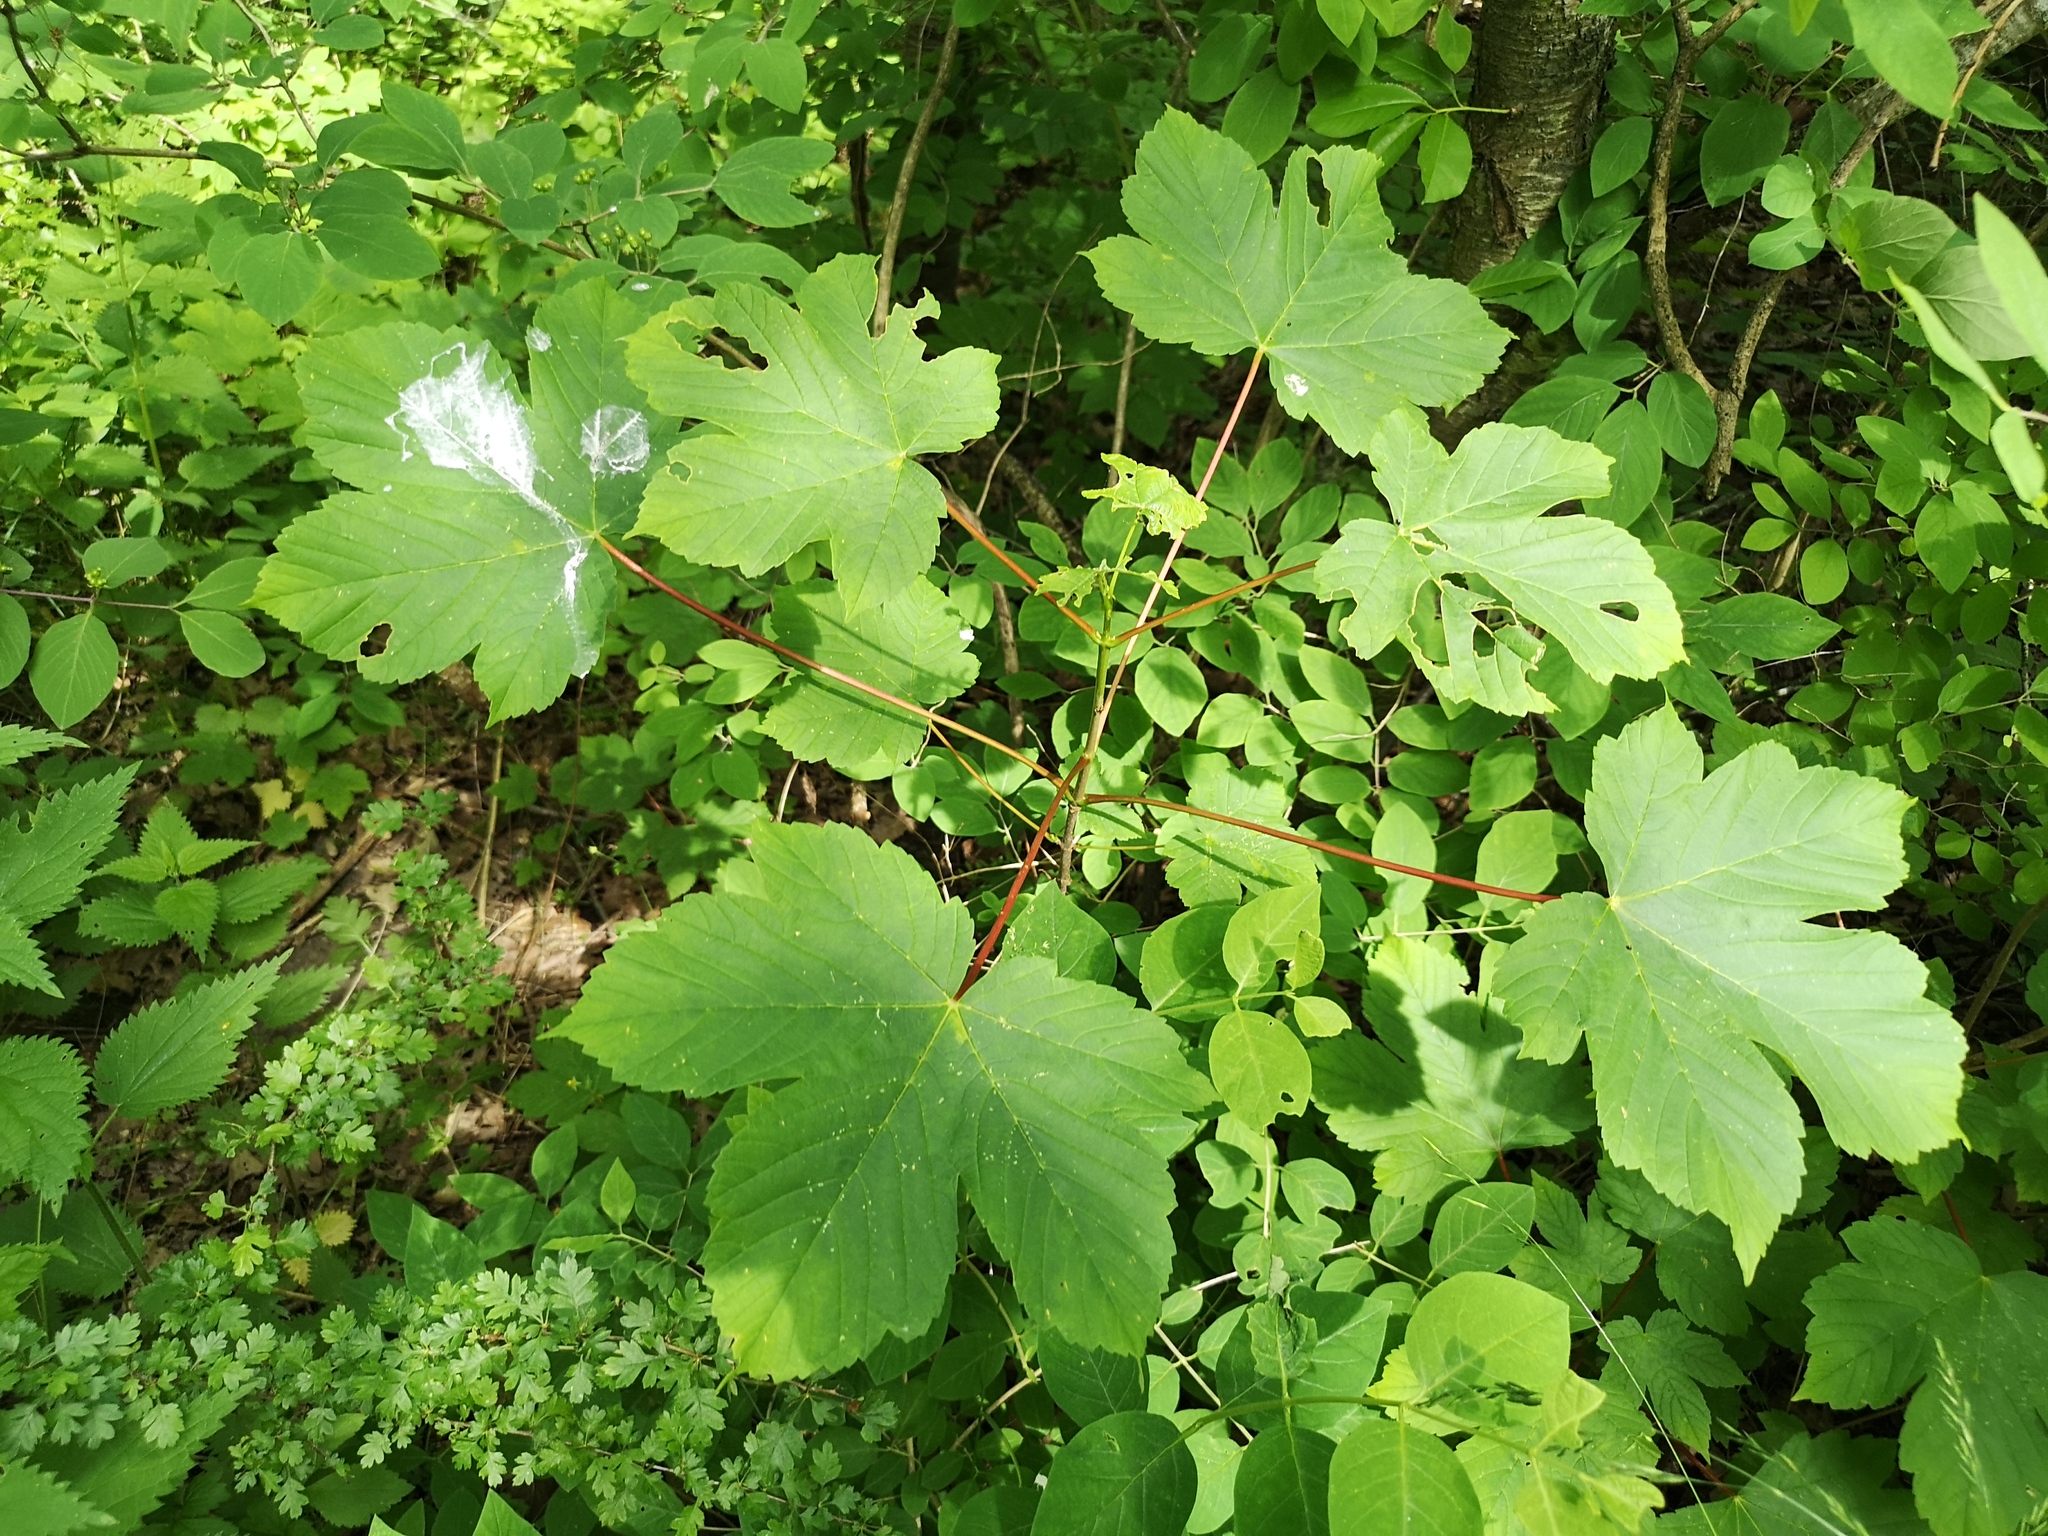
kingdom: Plantae
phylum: Tracheophyta
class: Magnoliopsida
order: Sapindales
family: Sapindaceae
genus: Acer
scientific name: Acer pseudoplatanus
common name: Sycamore
